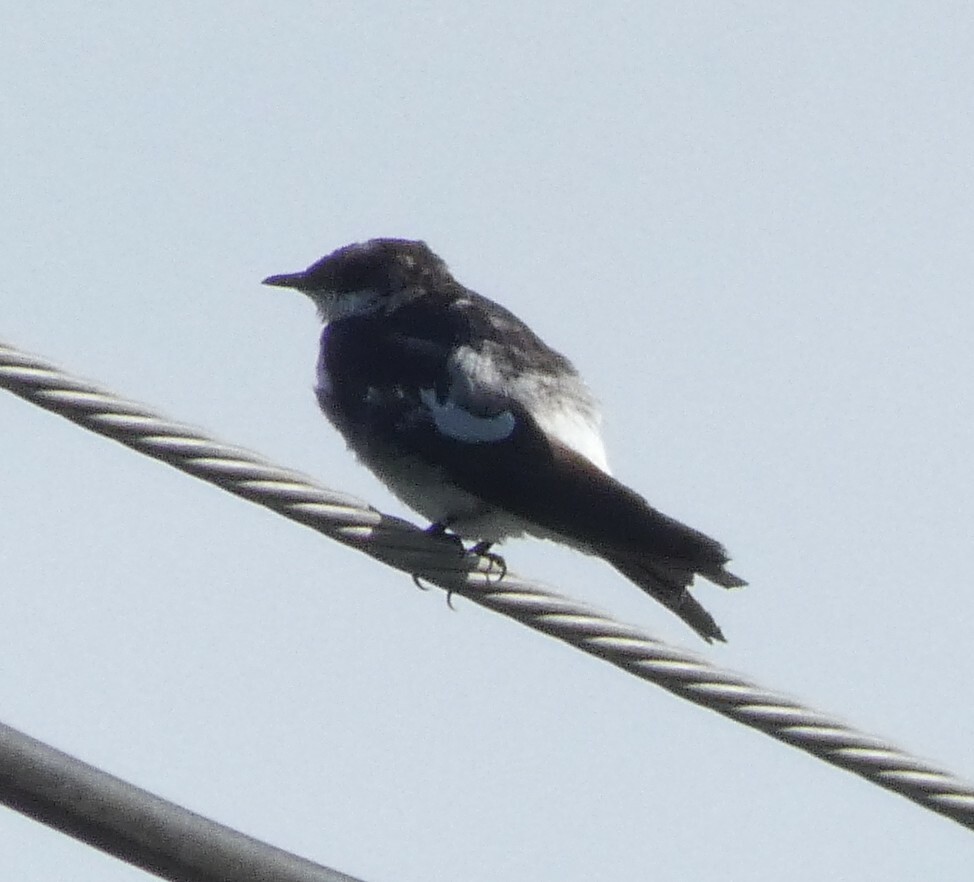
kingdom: Animalia
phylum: Chordata
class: Aves
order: Passeriformes
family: Hirundinidae
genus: Tachycineta
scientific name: Tachycineta albiventer
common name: White-winged swallow
